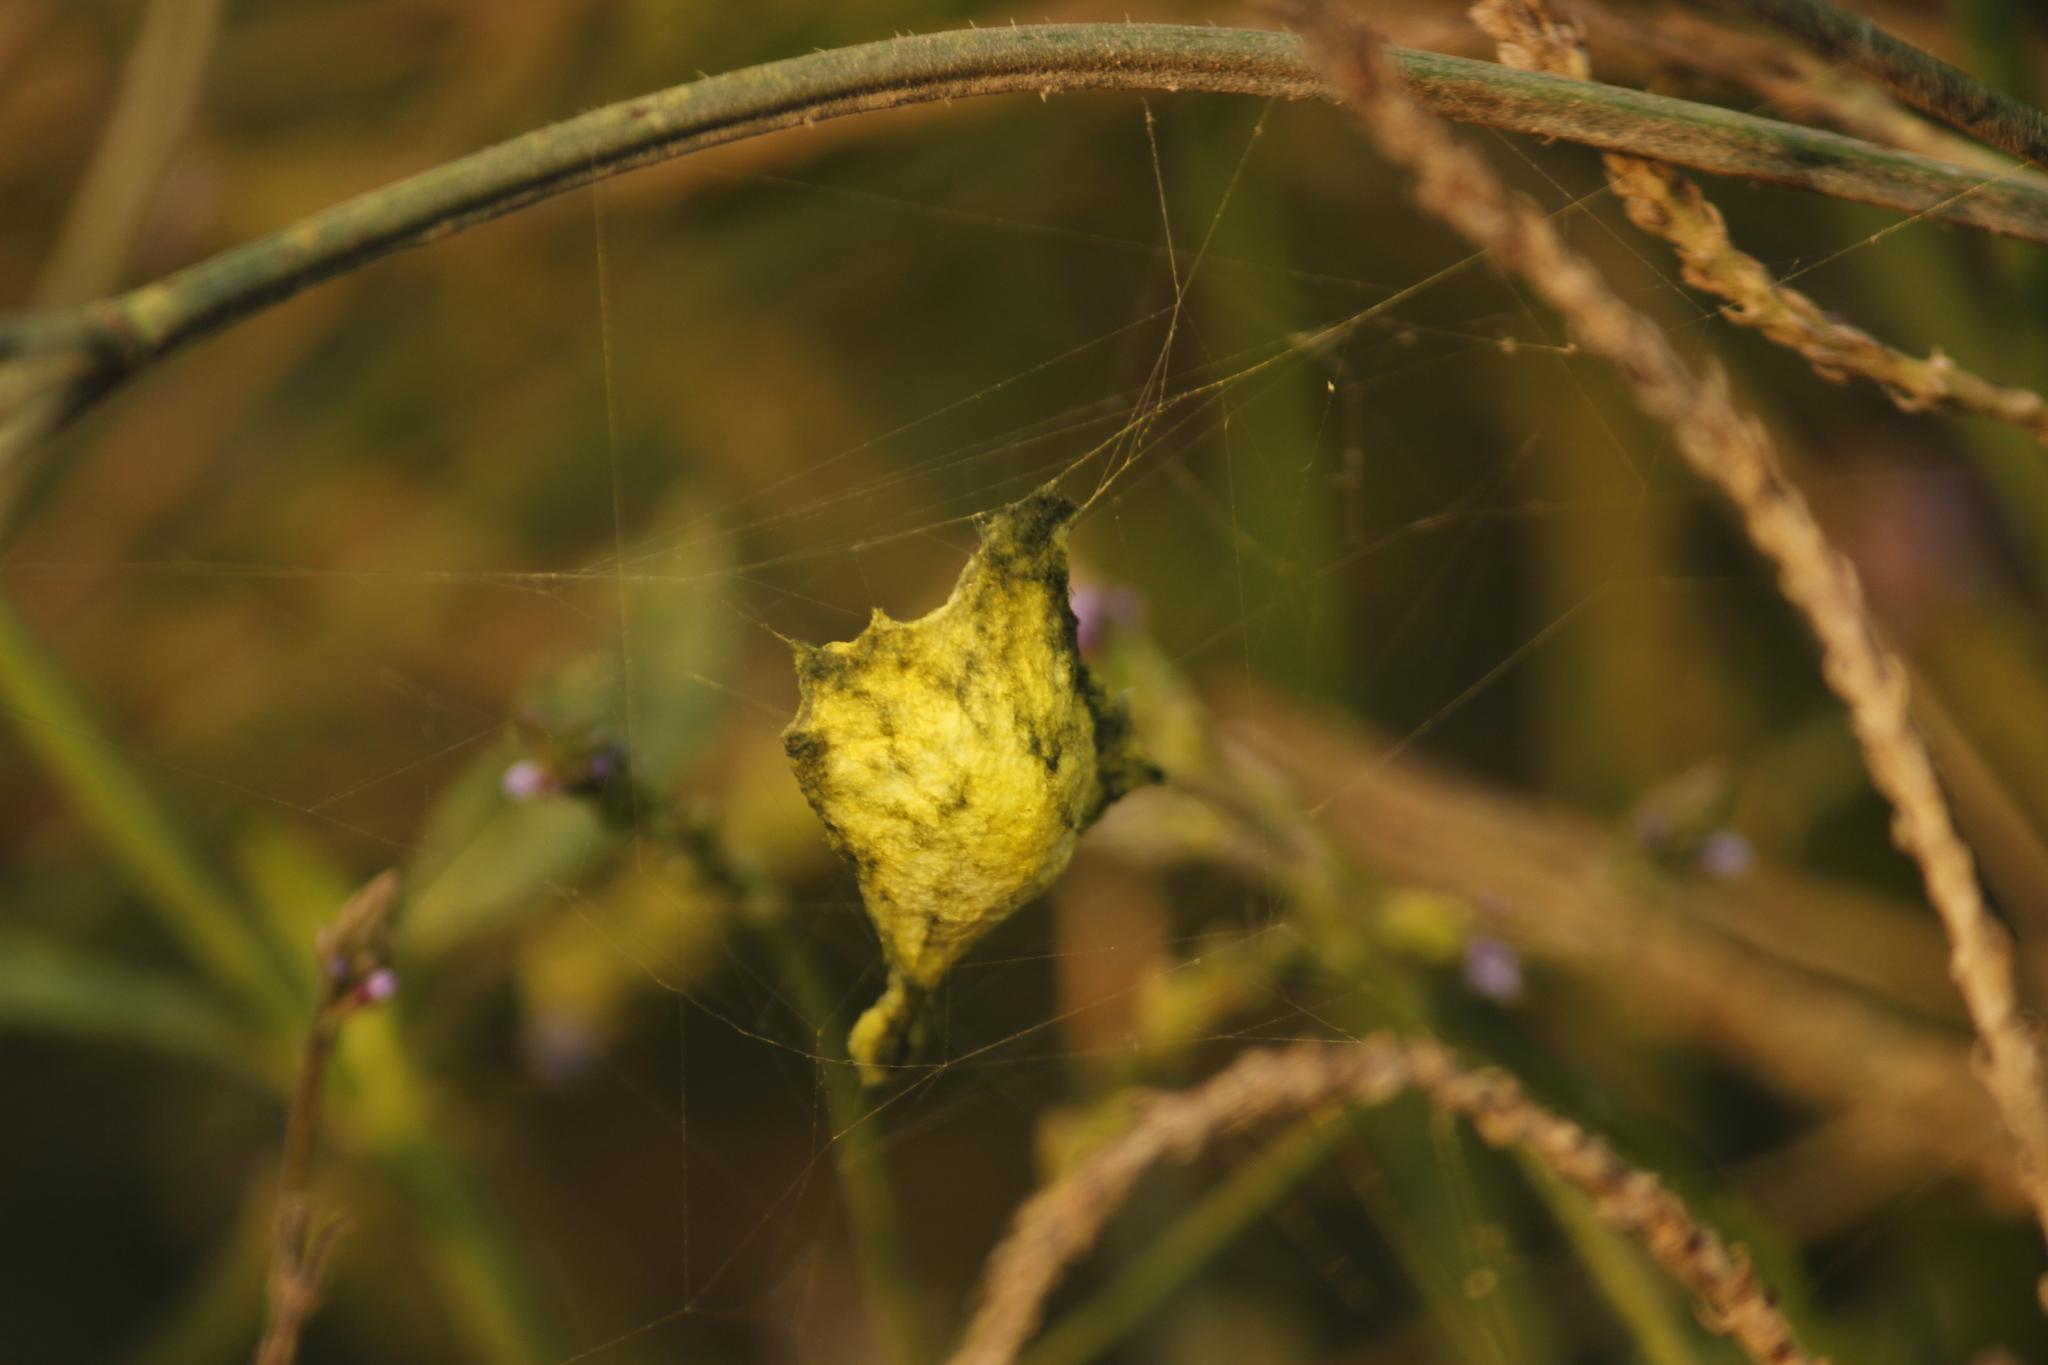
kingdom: Animalia
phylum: Arthropoda
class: Arachnida
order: Araneae
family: Araneidae
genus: Argiope
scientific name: Argiope argentata
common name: Orb weavers
